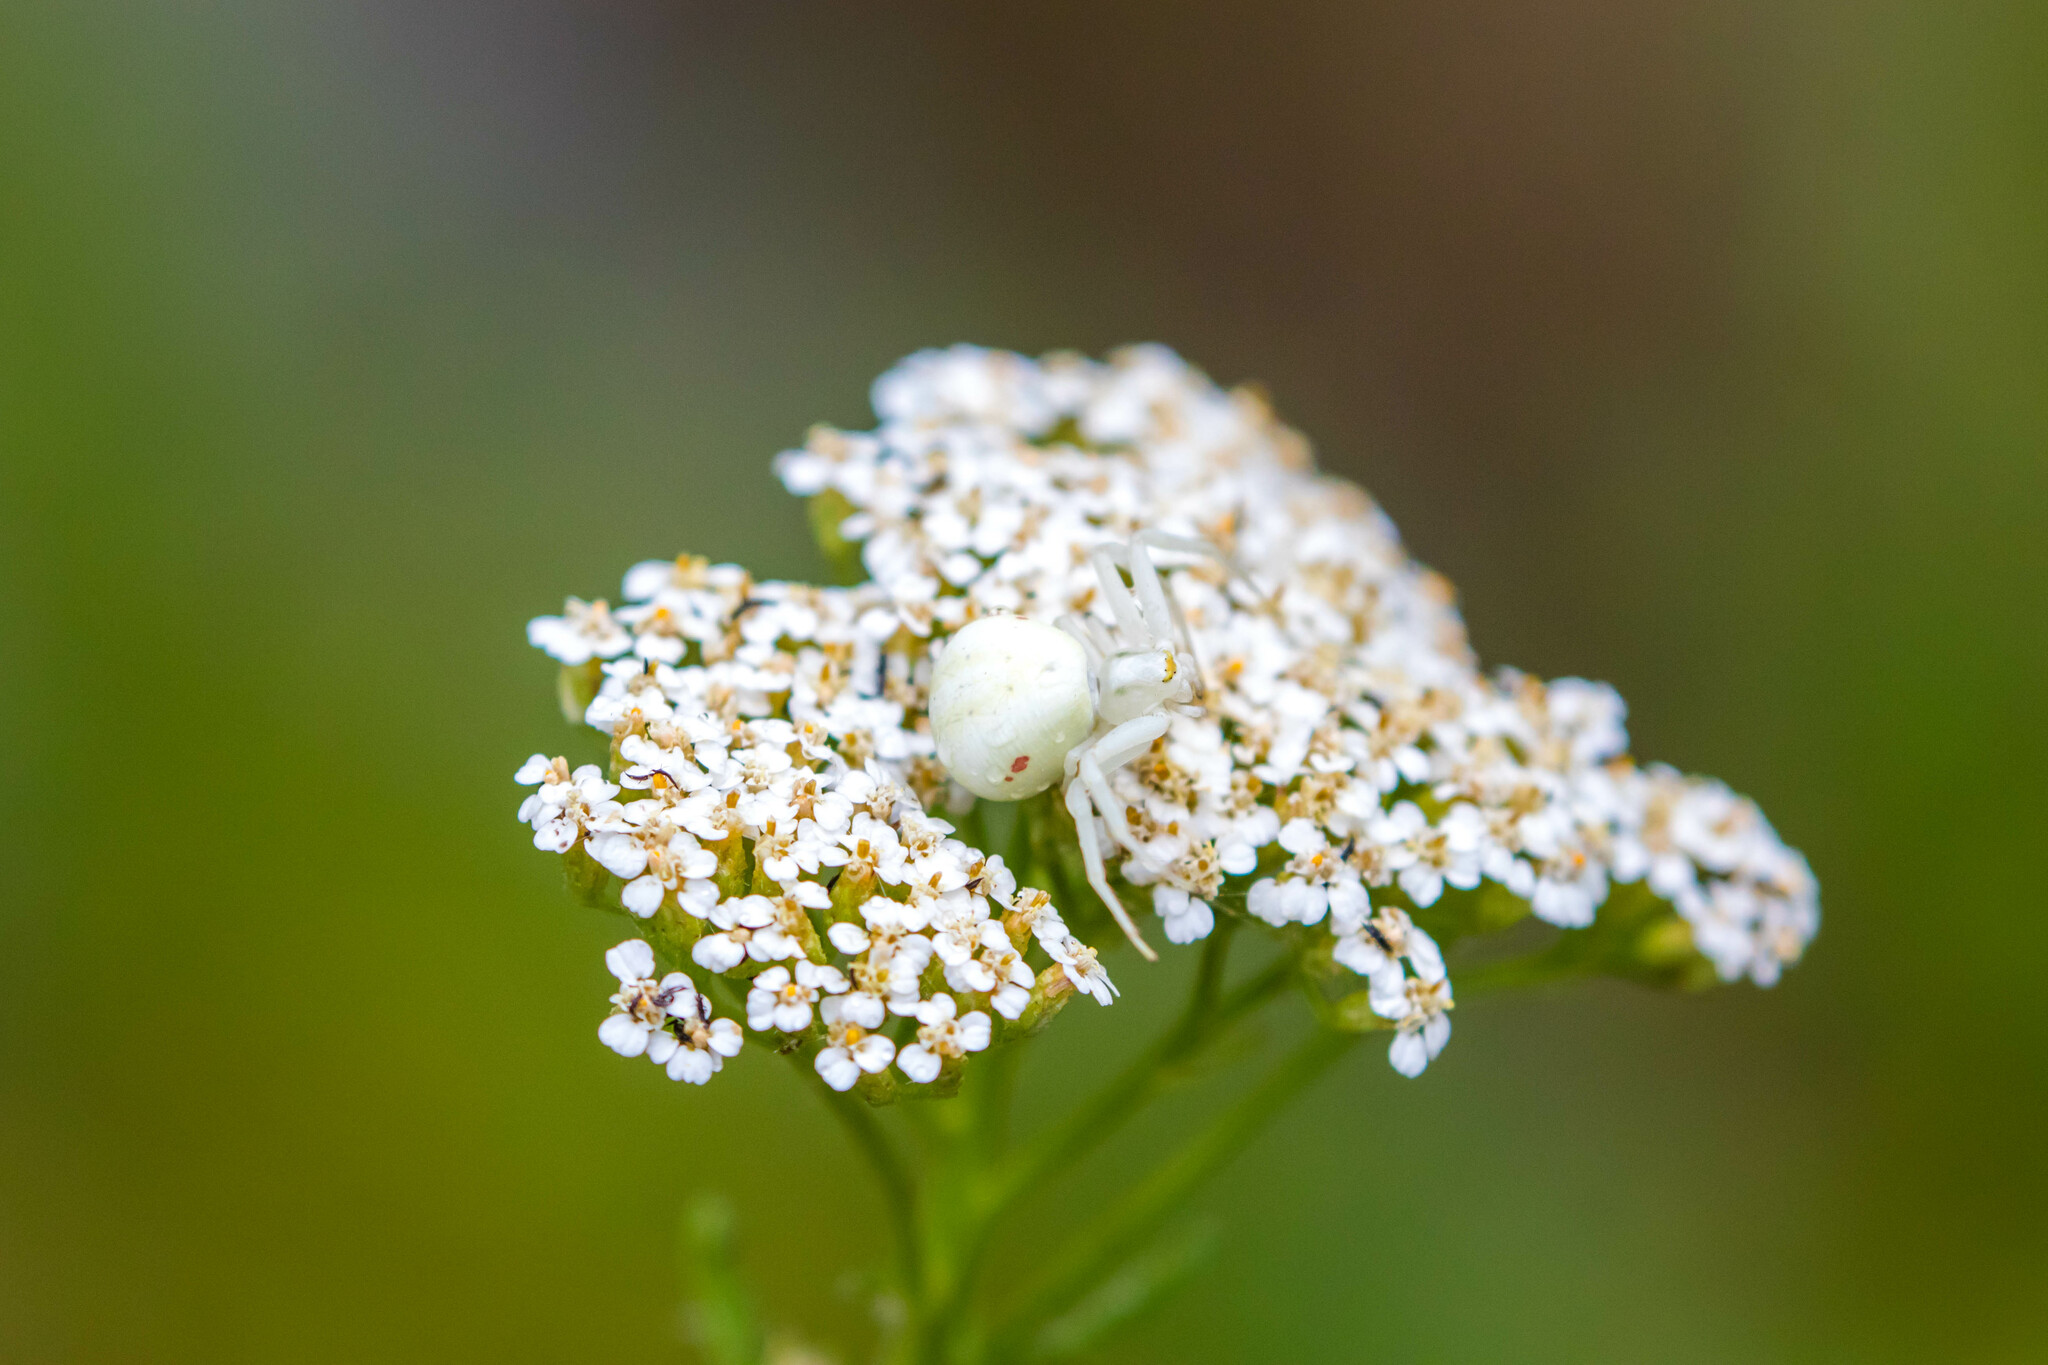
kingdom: Animalia
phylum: Arthropoda
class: Arachnida
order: Araneae
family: Thomisidae
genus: Misumena
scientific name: Misumena vatia
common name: Goldenrod crab spider
